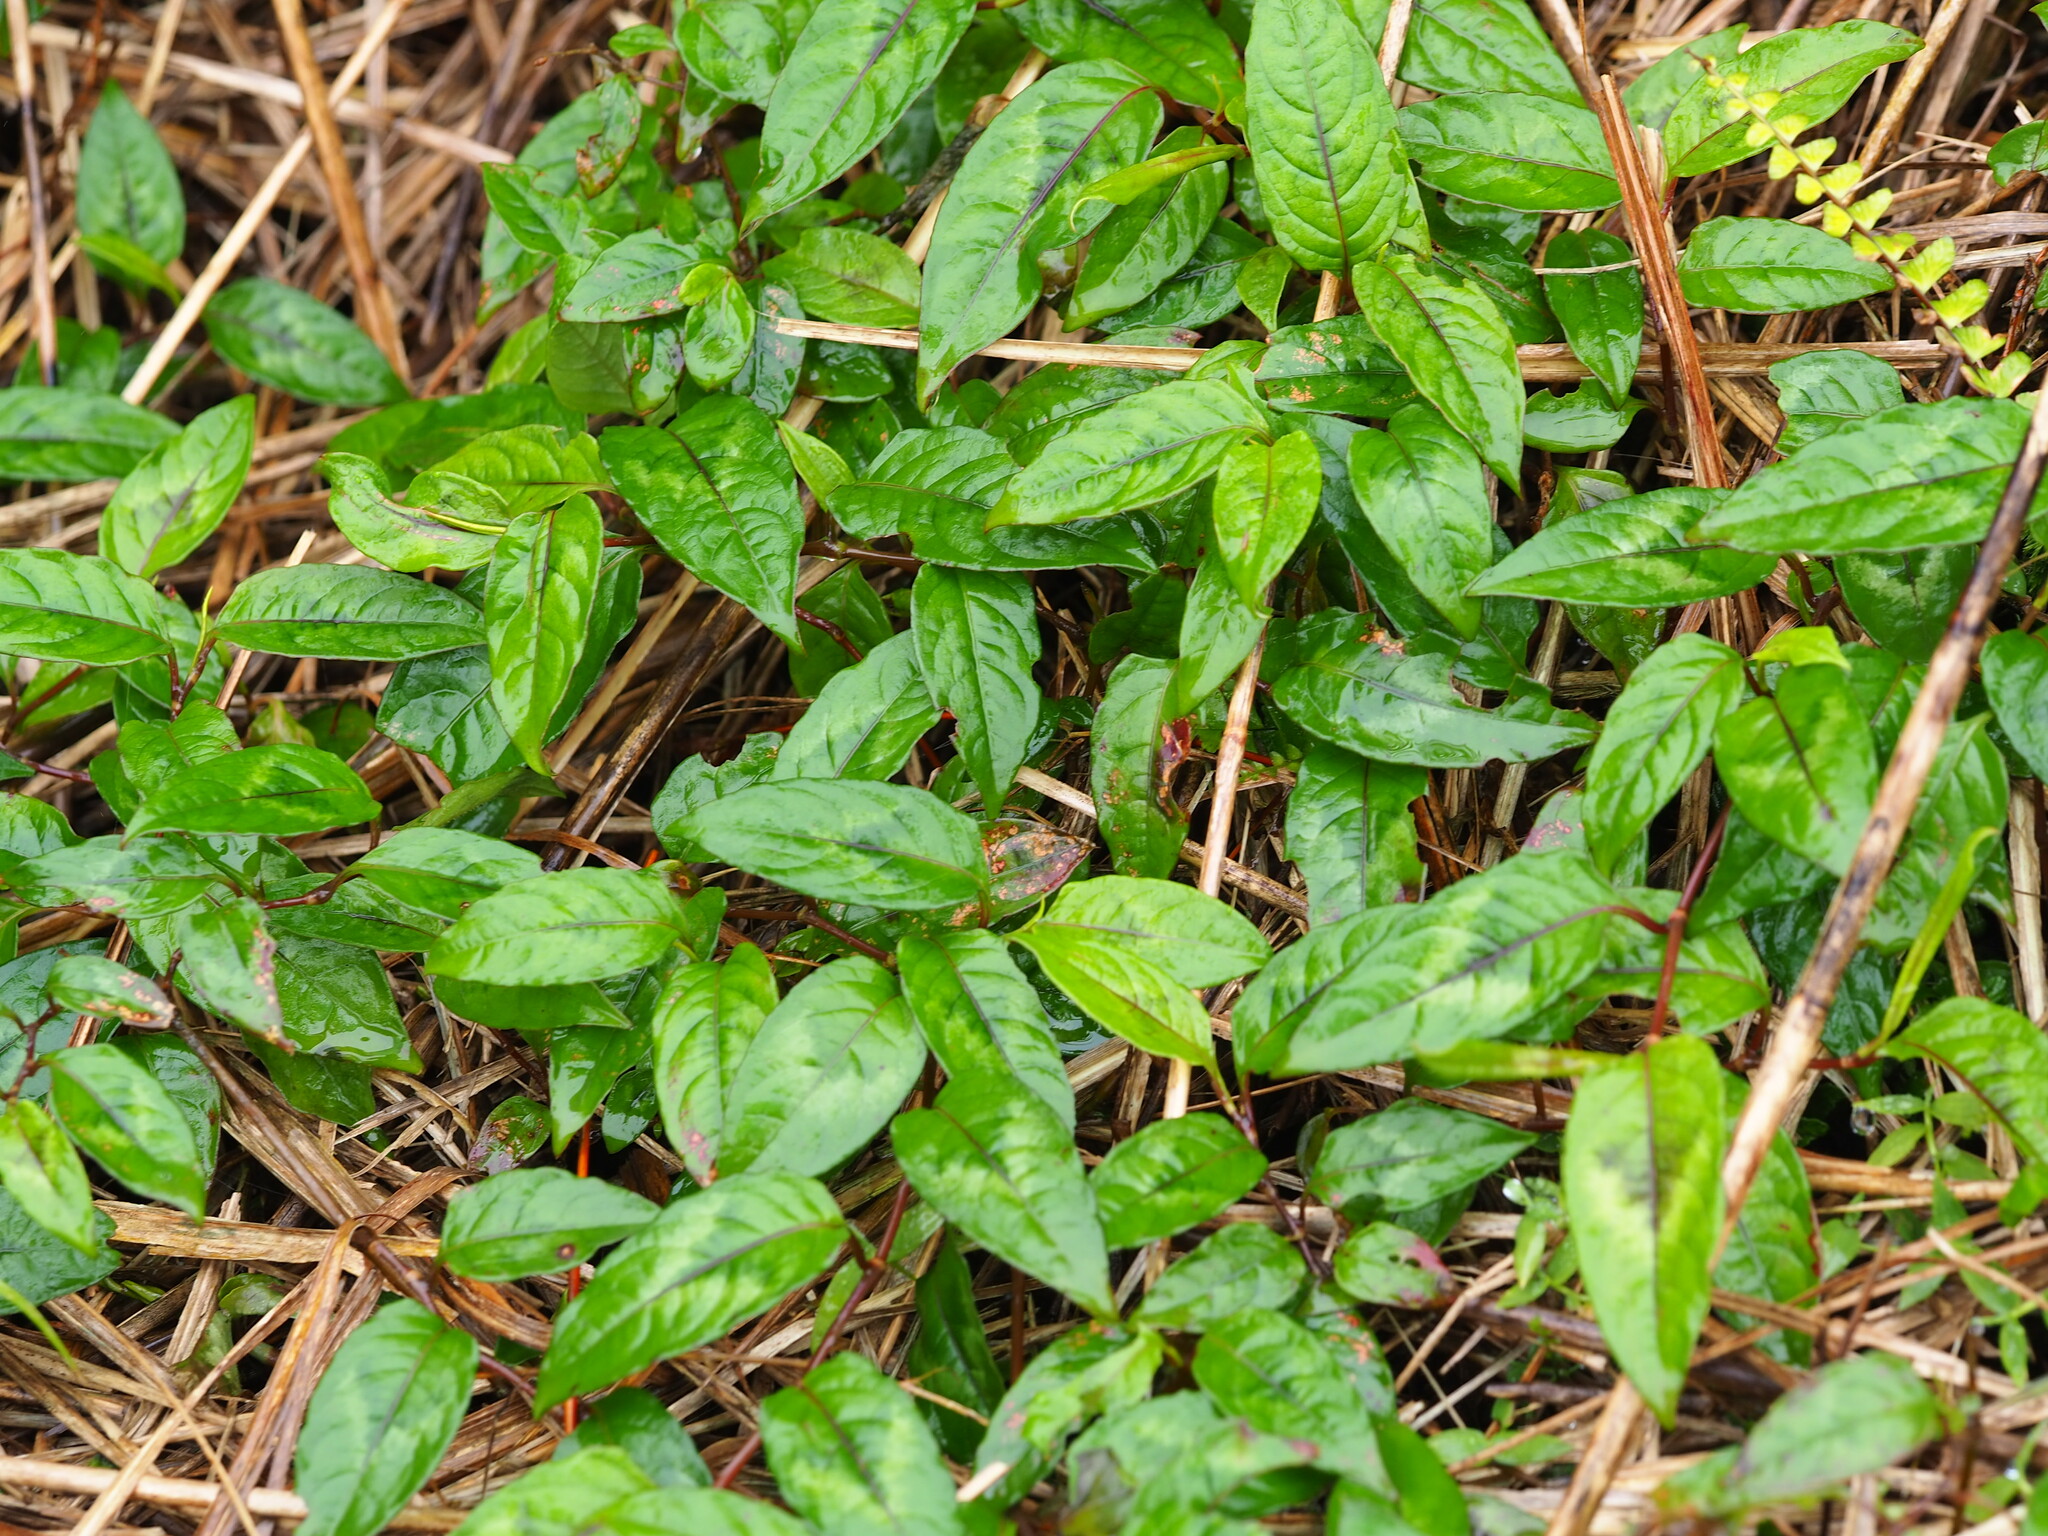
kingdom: Plantae
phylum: Tracheophyta
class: Magnoliopsida
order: Caryophyllales
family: Polygonaceae
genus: Persicaria
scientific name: Persicaria chinensis
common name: Chinese knotweed
